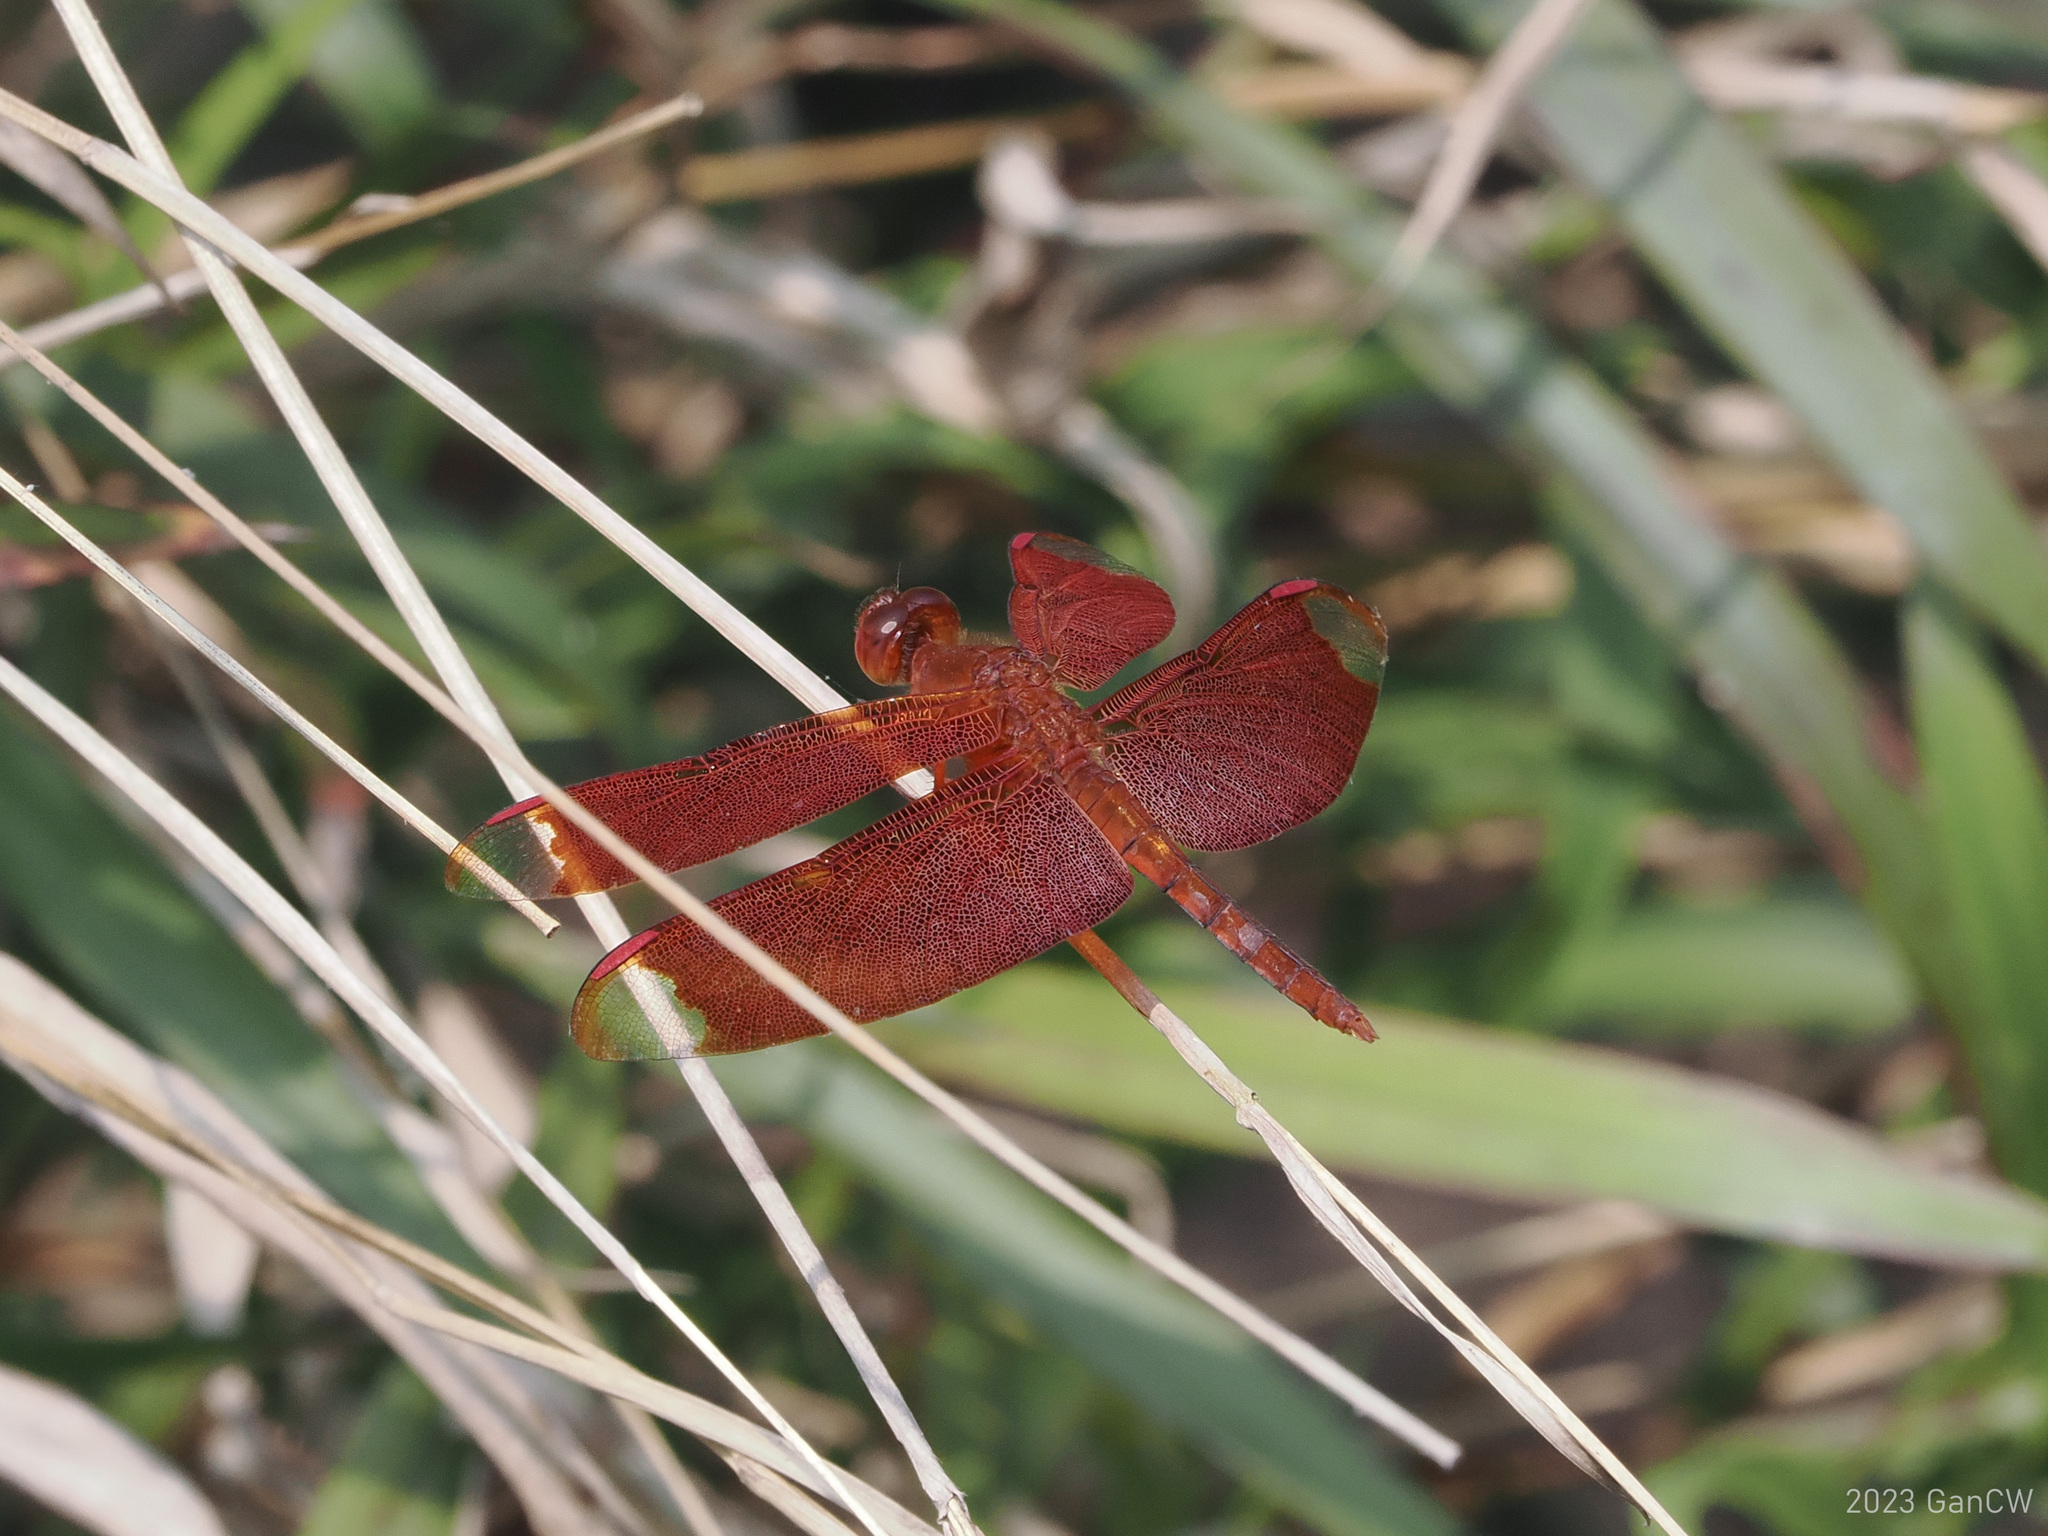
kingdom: Animalia
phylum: Arthropoda
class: Insecta
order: Odonata
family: Libellulidae
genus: Neurothemis
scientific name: Neurothemis fulvia
